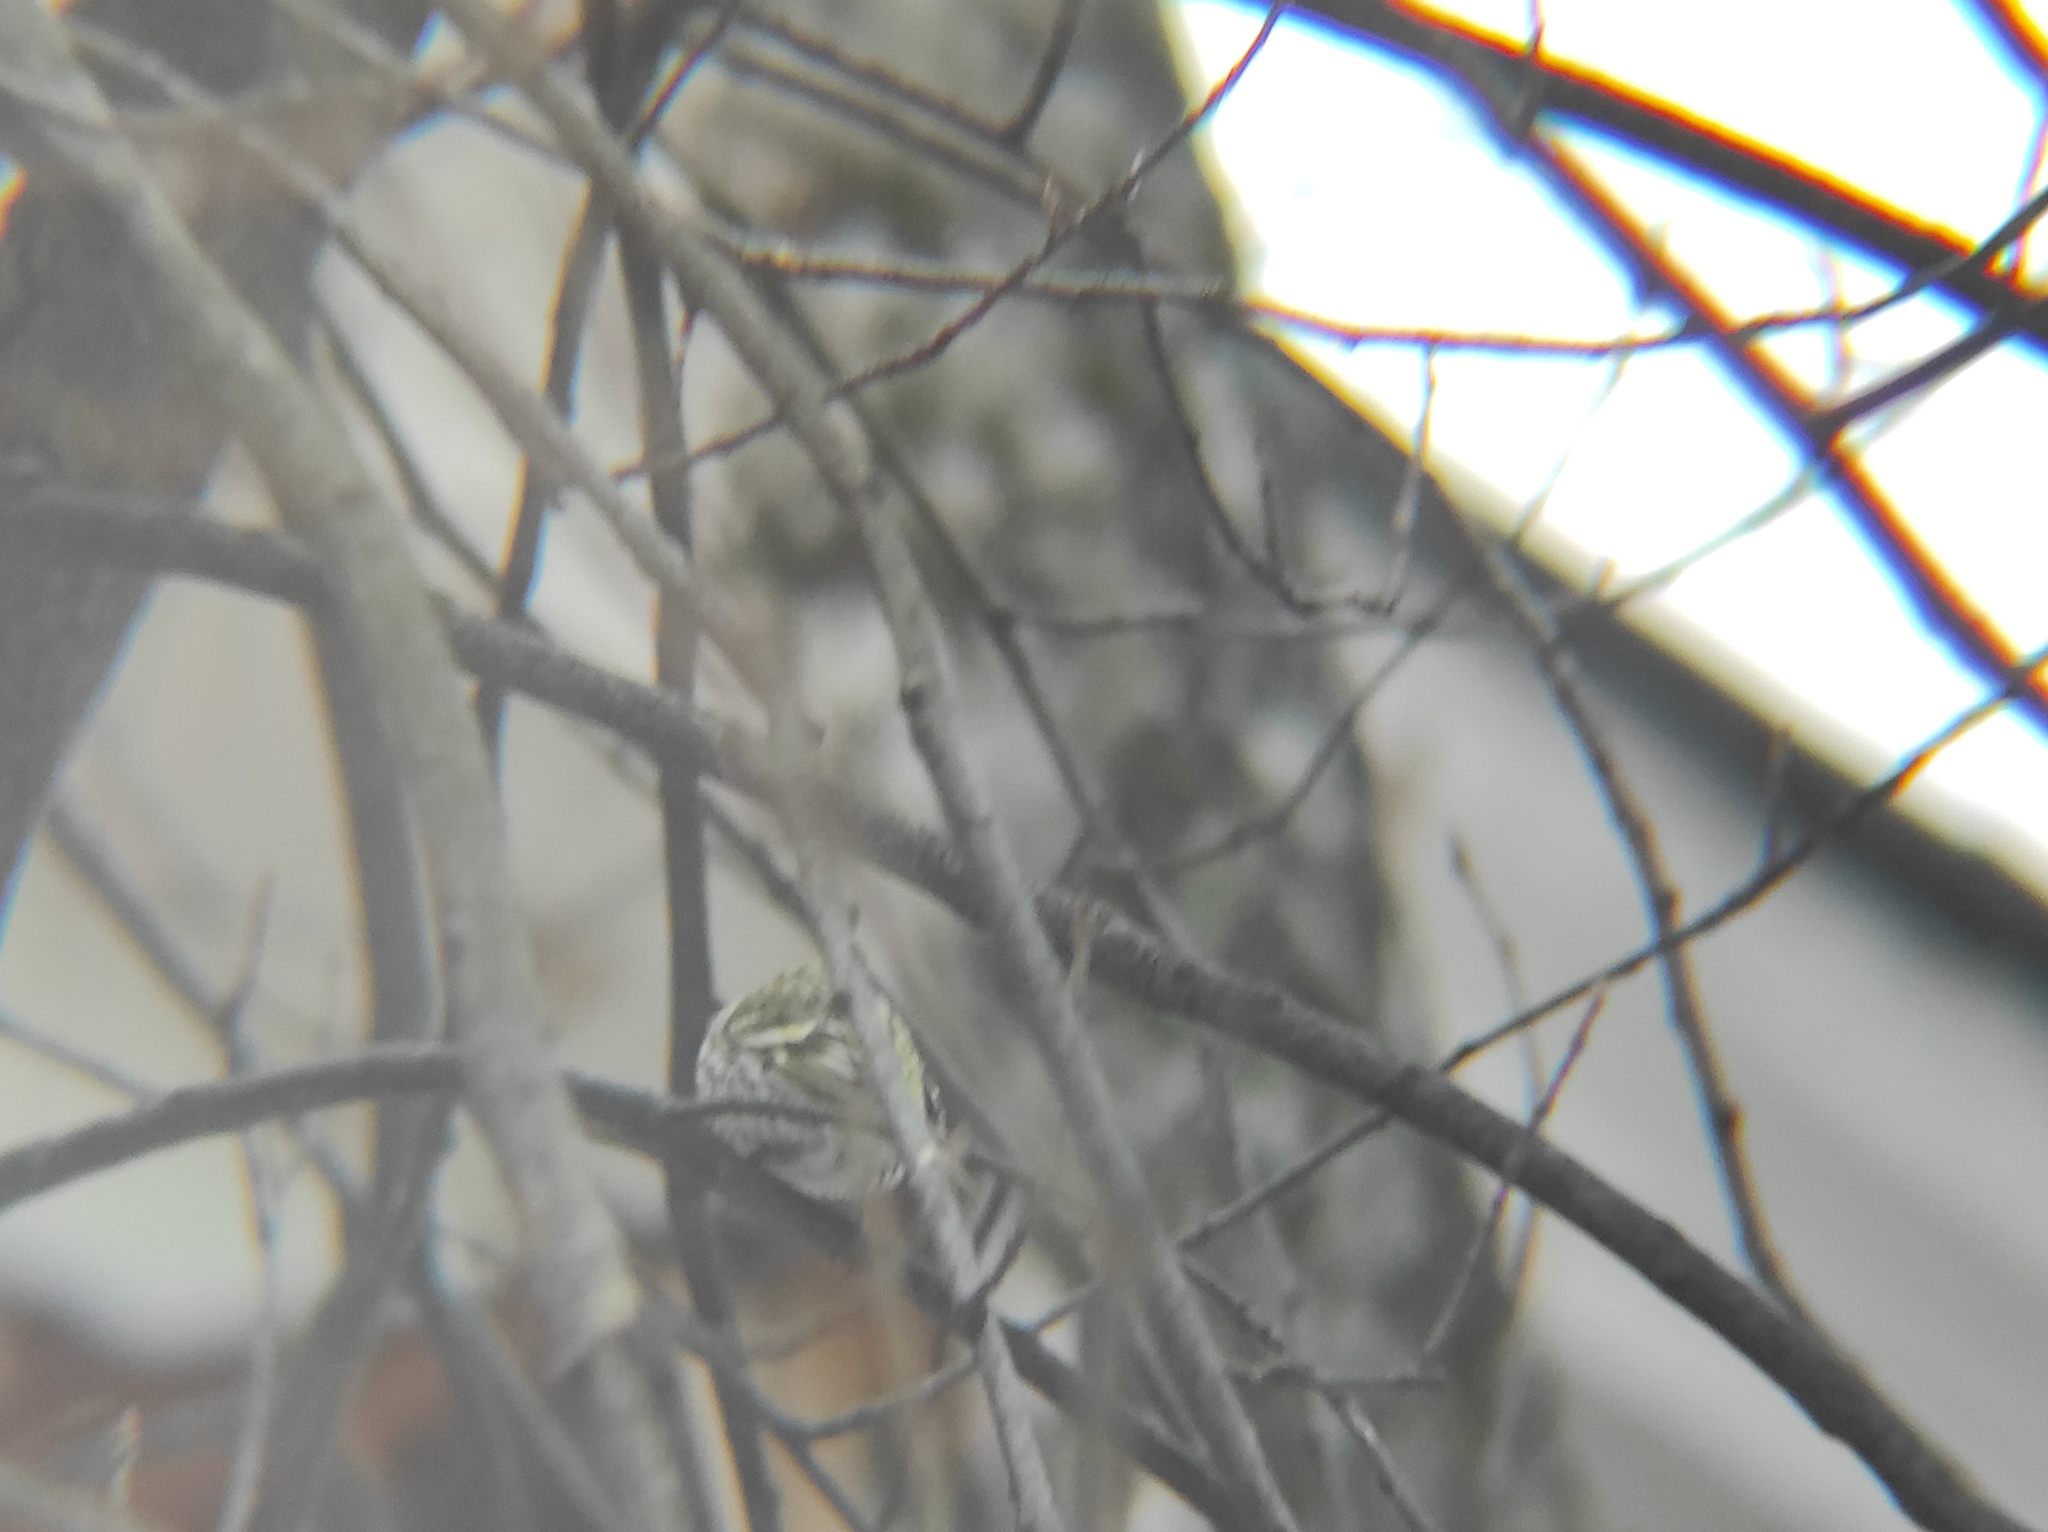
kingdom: Animalia
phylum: Chordata
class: Aves
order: Passeriformes
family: Fringillidae
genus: Spinus
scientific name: Spinus spinus
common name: Eurasian siskin
